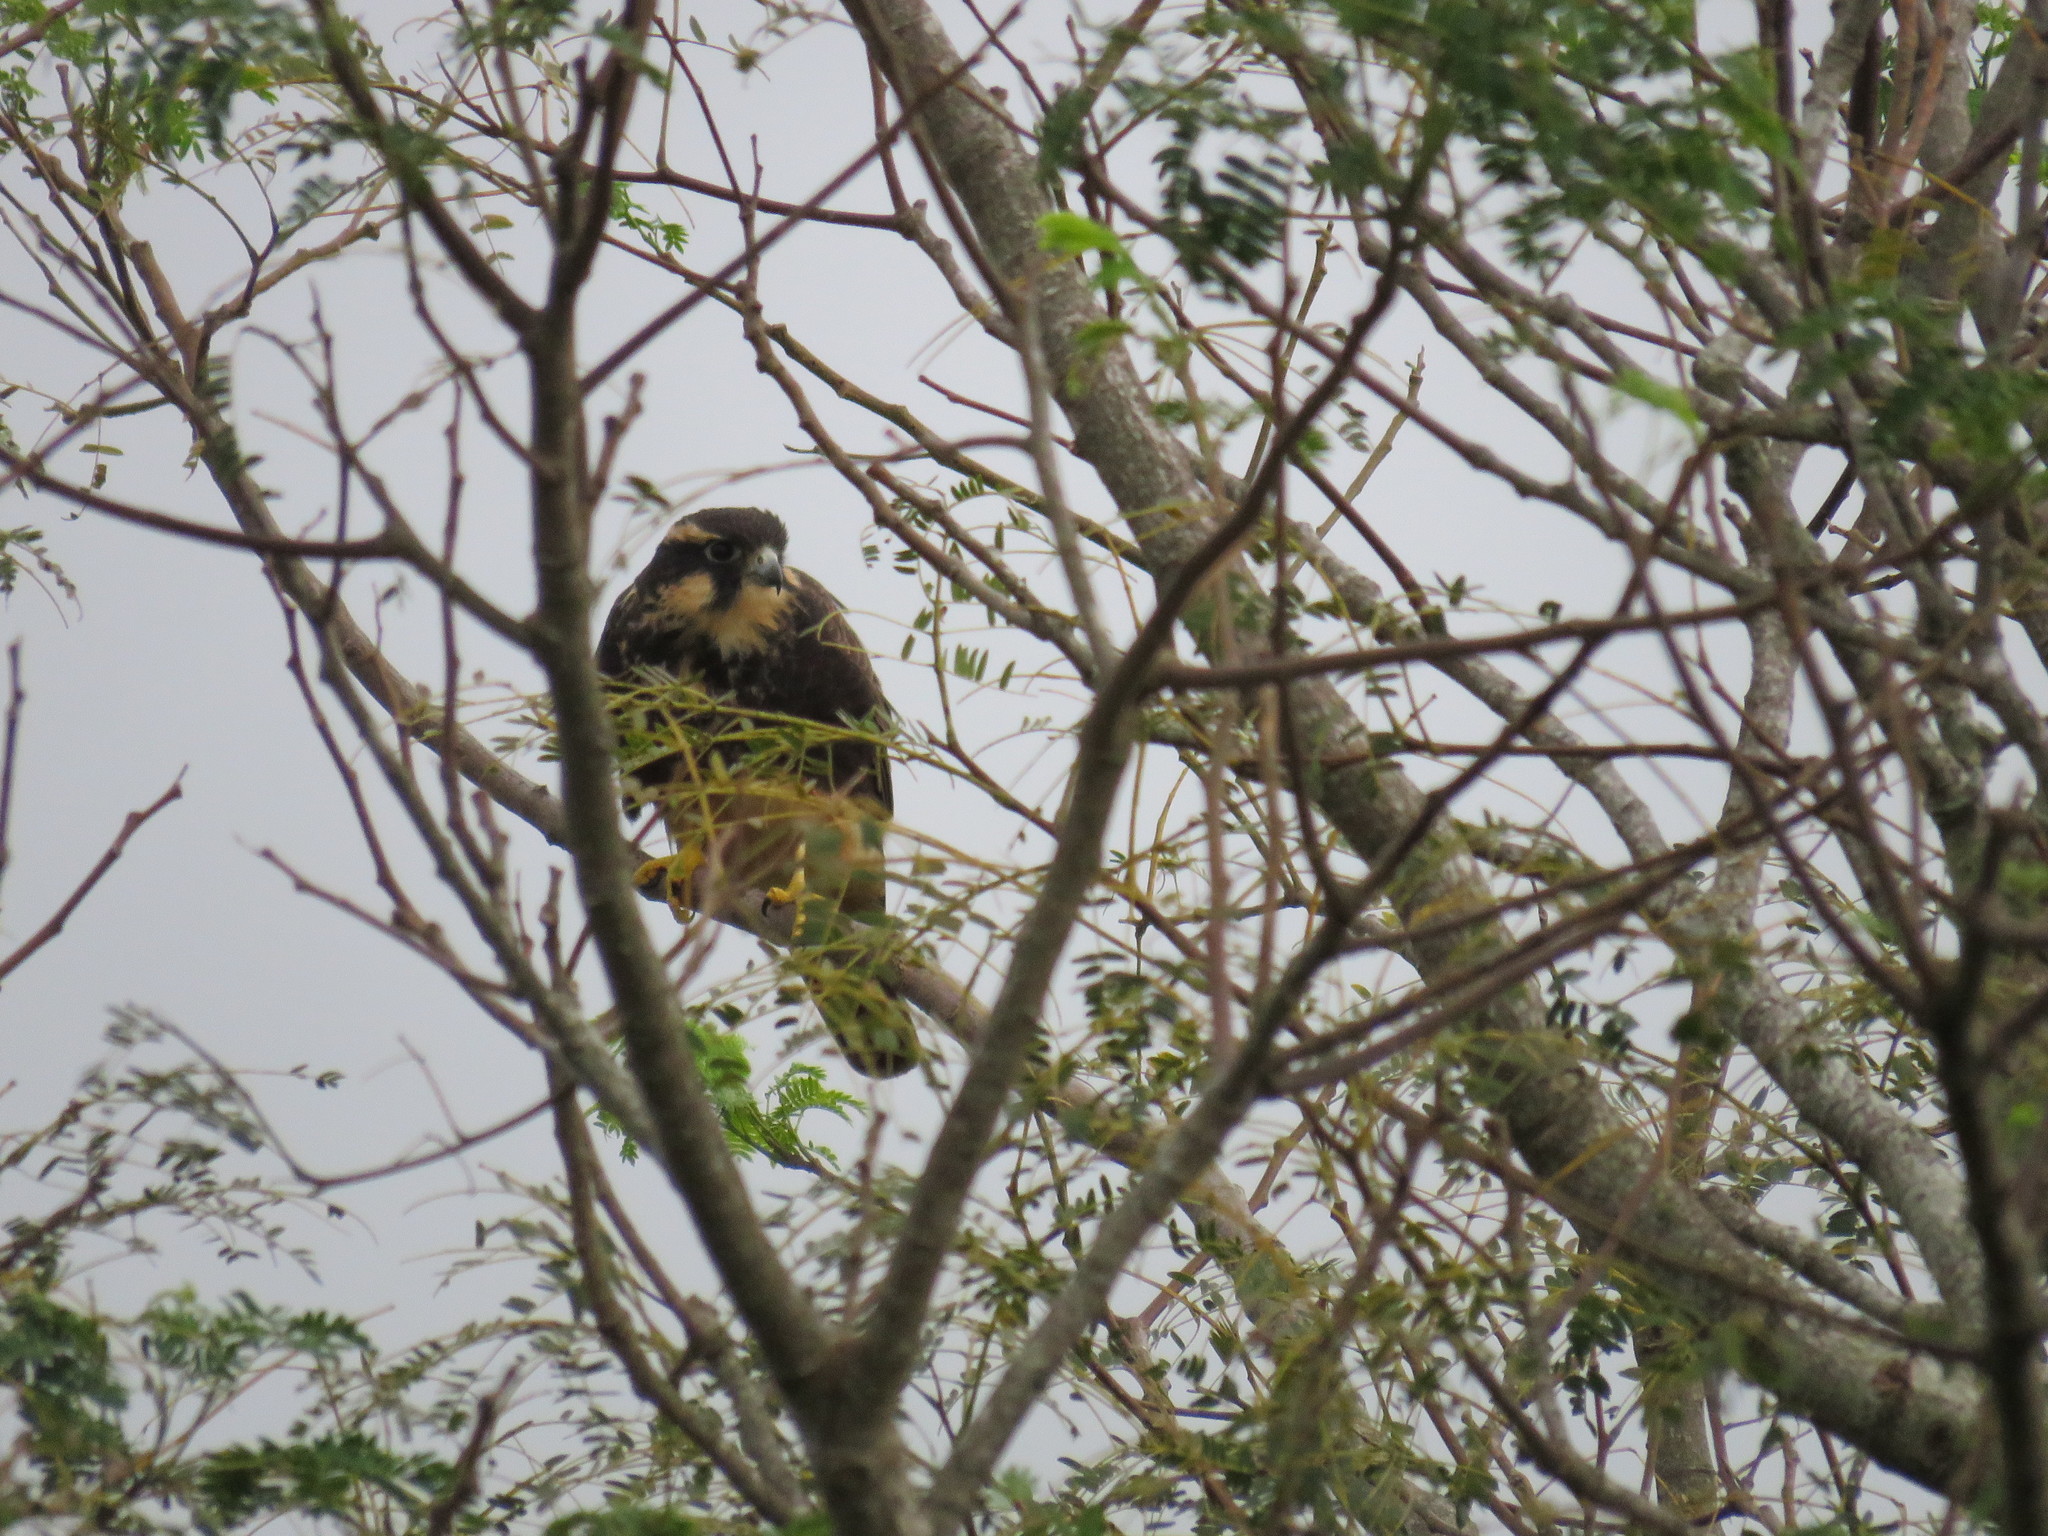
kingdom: Animalia
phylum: Chordata
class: Aves
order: Falconiformes
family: Falconidae
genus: Falco
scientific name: Falco femoralis
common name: Aplomado falcon
